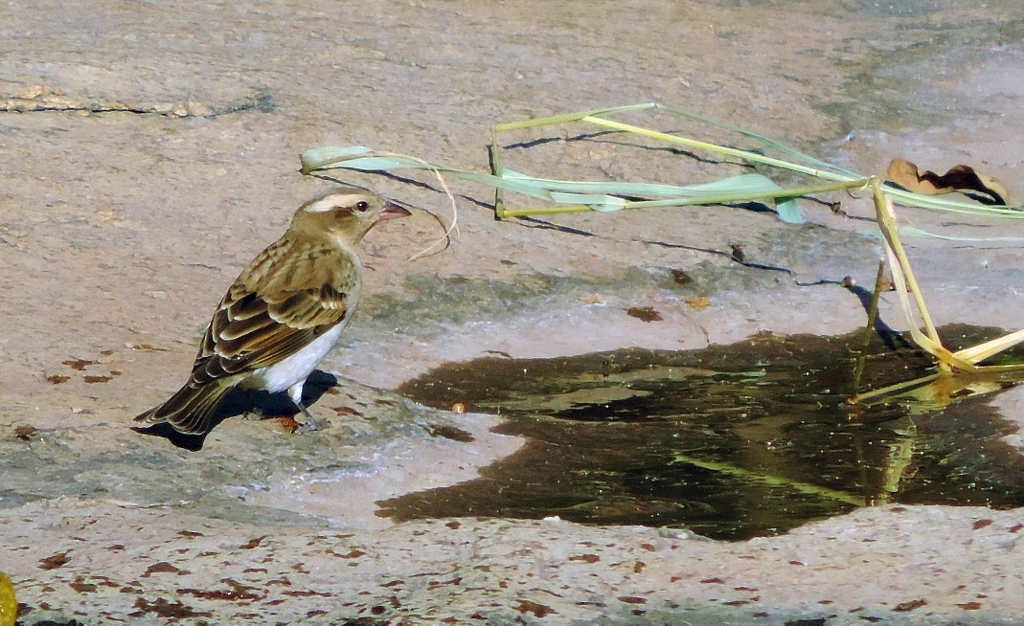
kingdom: Animalia
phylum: Chordata
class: Aves
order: Passeriformes
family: Passeridae
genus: Gymnoris
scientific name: Gymnoris superciliaris
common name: Yellow-throated petronia
